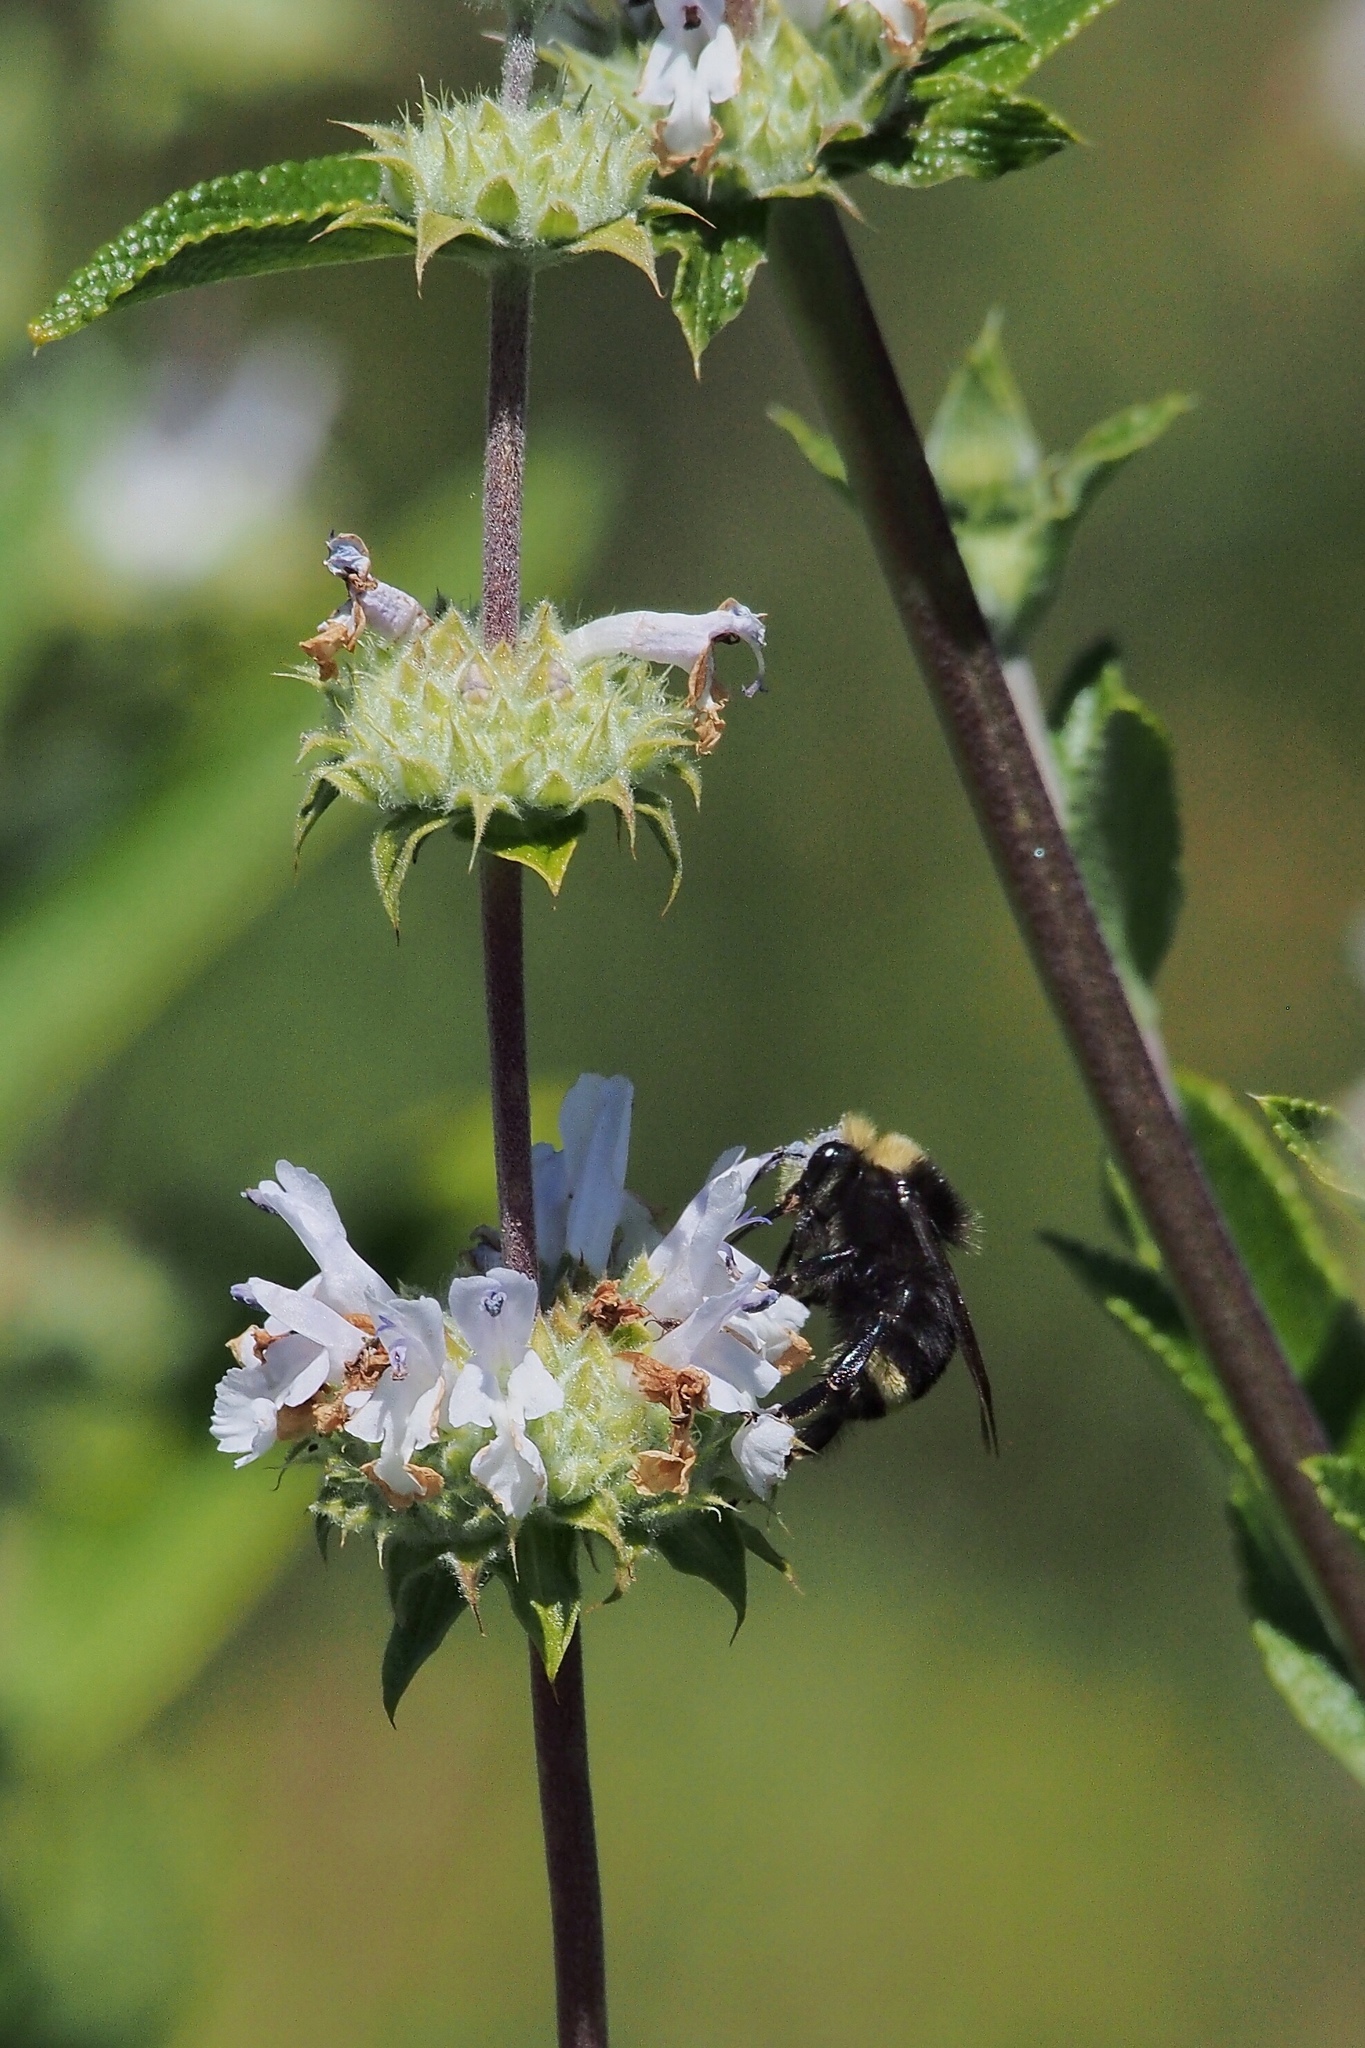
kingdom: Animalia
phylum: Arthropoda
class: Insecta
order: Hymenoptera
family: Apidae
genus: Bombus
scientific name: Bombus vosnesenskii
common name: Vosnesensky bumble bee
